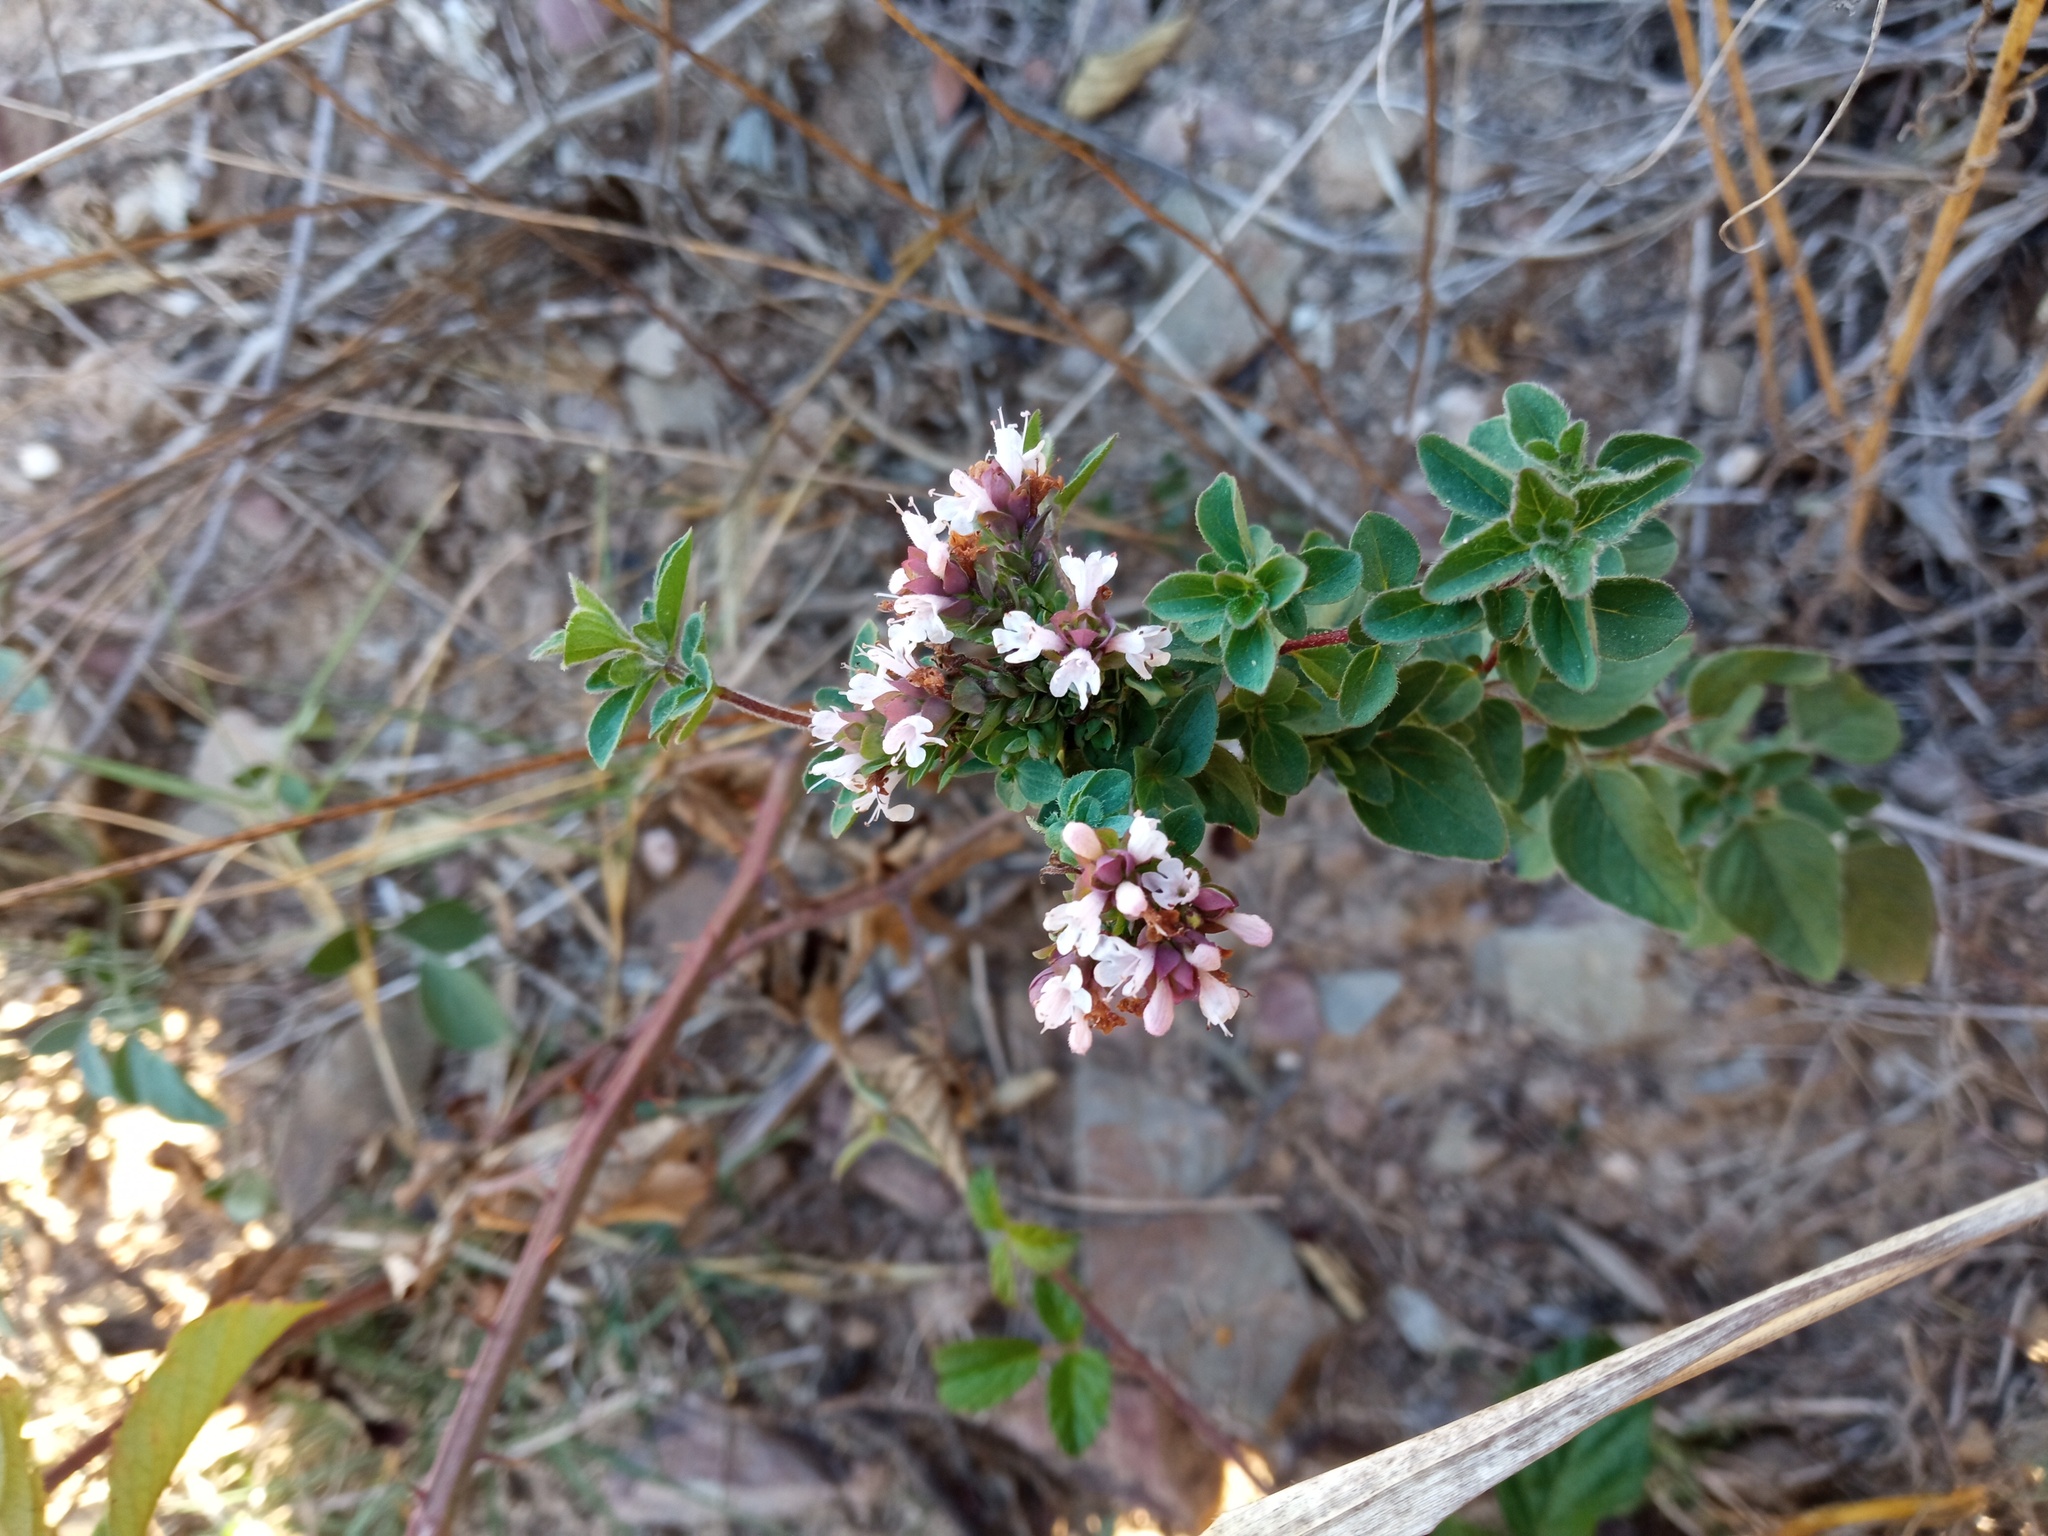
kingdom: Plantae
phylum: Tracheophyta
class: Magnoliopsida
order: Lamiales
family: Lamiaceae
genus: Origanum
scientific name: Origanum vulgare
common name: Wild marjoram
